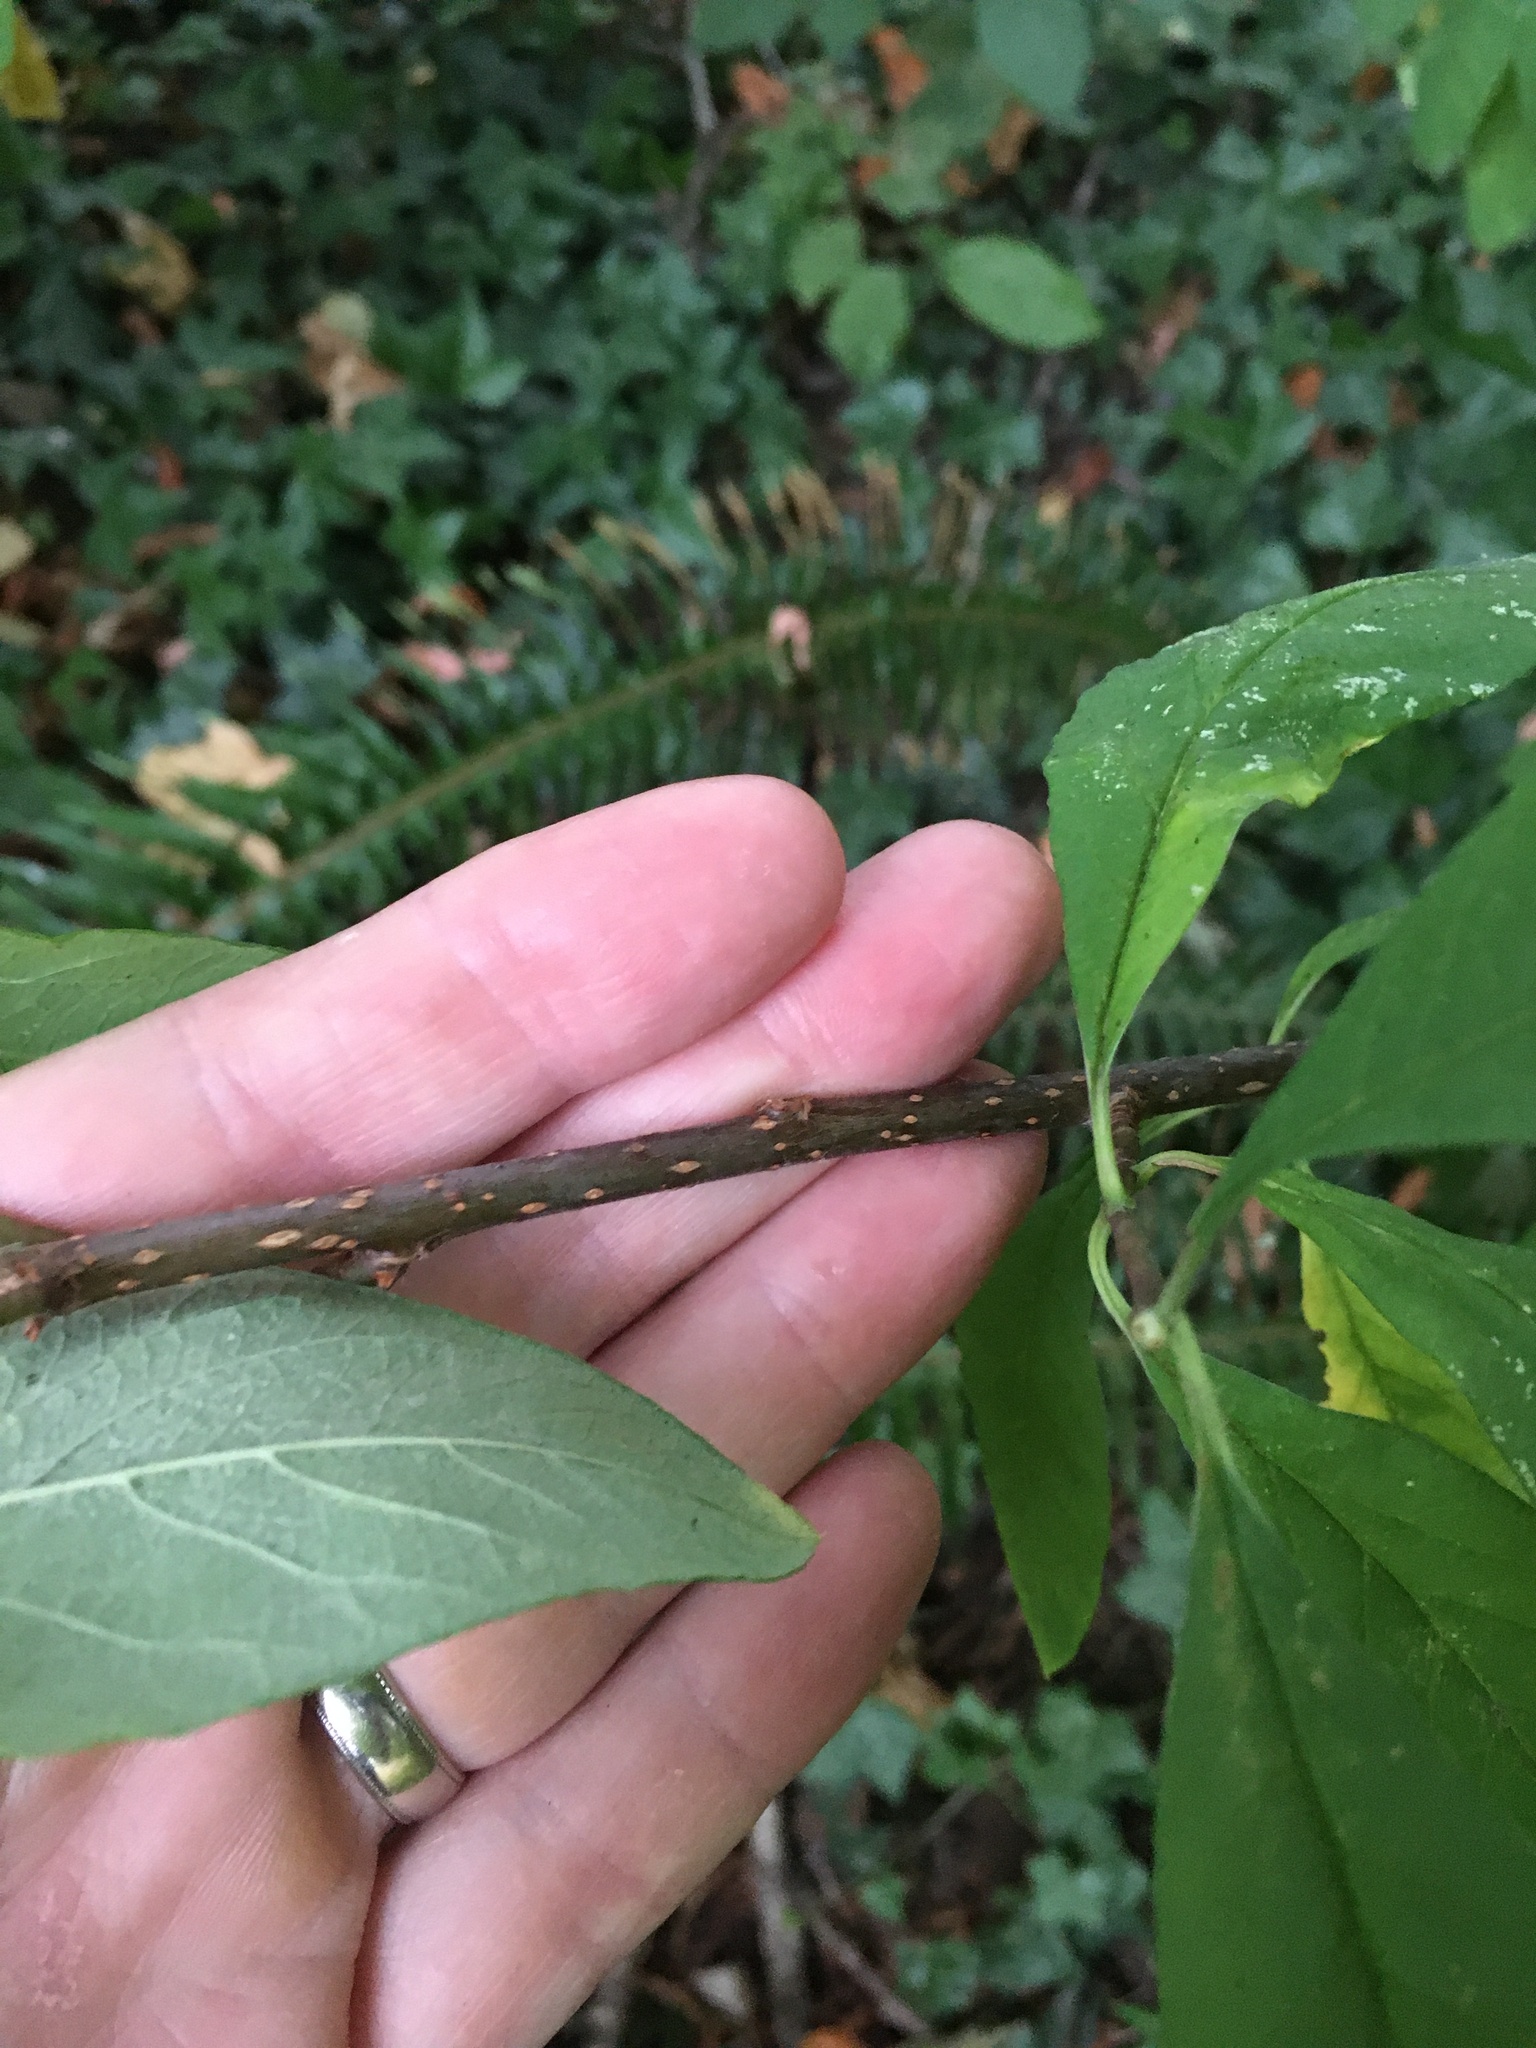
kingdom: Plantae
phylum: Tracheophyta
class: Magnoliopsida
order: Rosales
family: Rosaceae
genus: Oemleria
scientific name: Oemleria cerasiformis
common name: Osoberry
